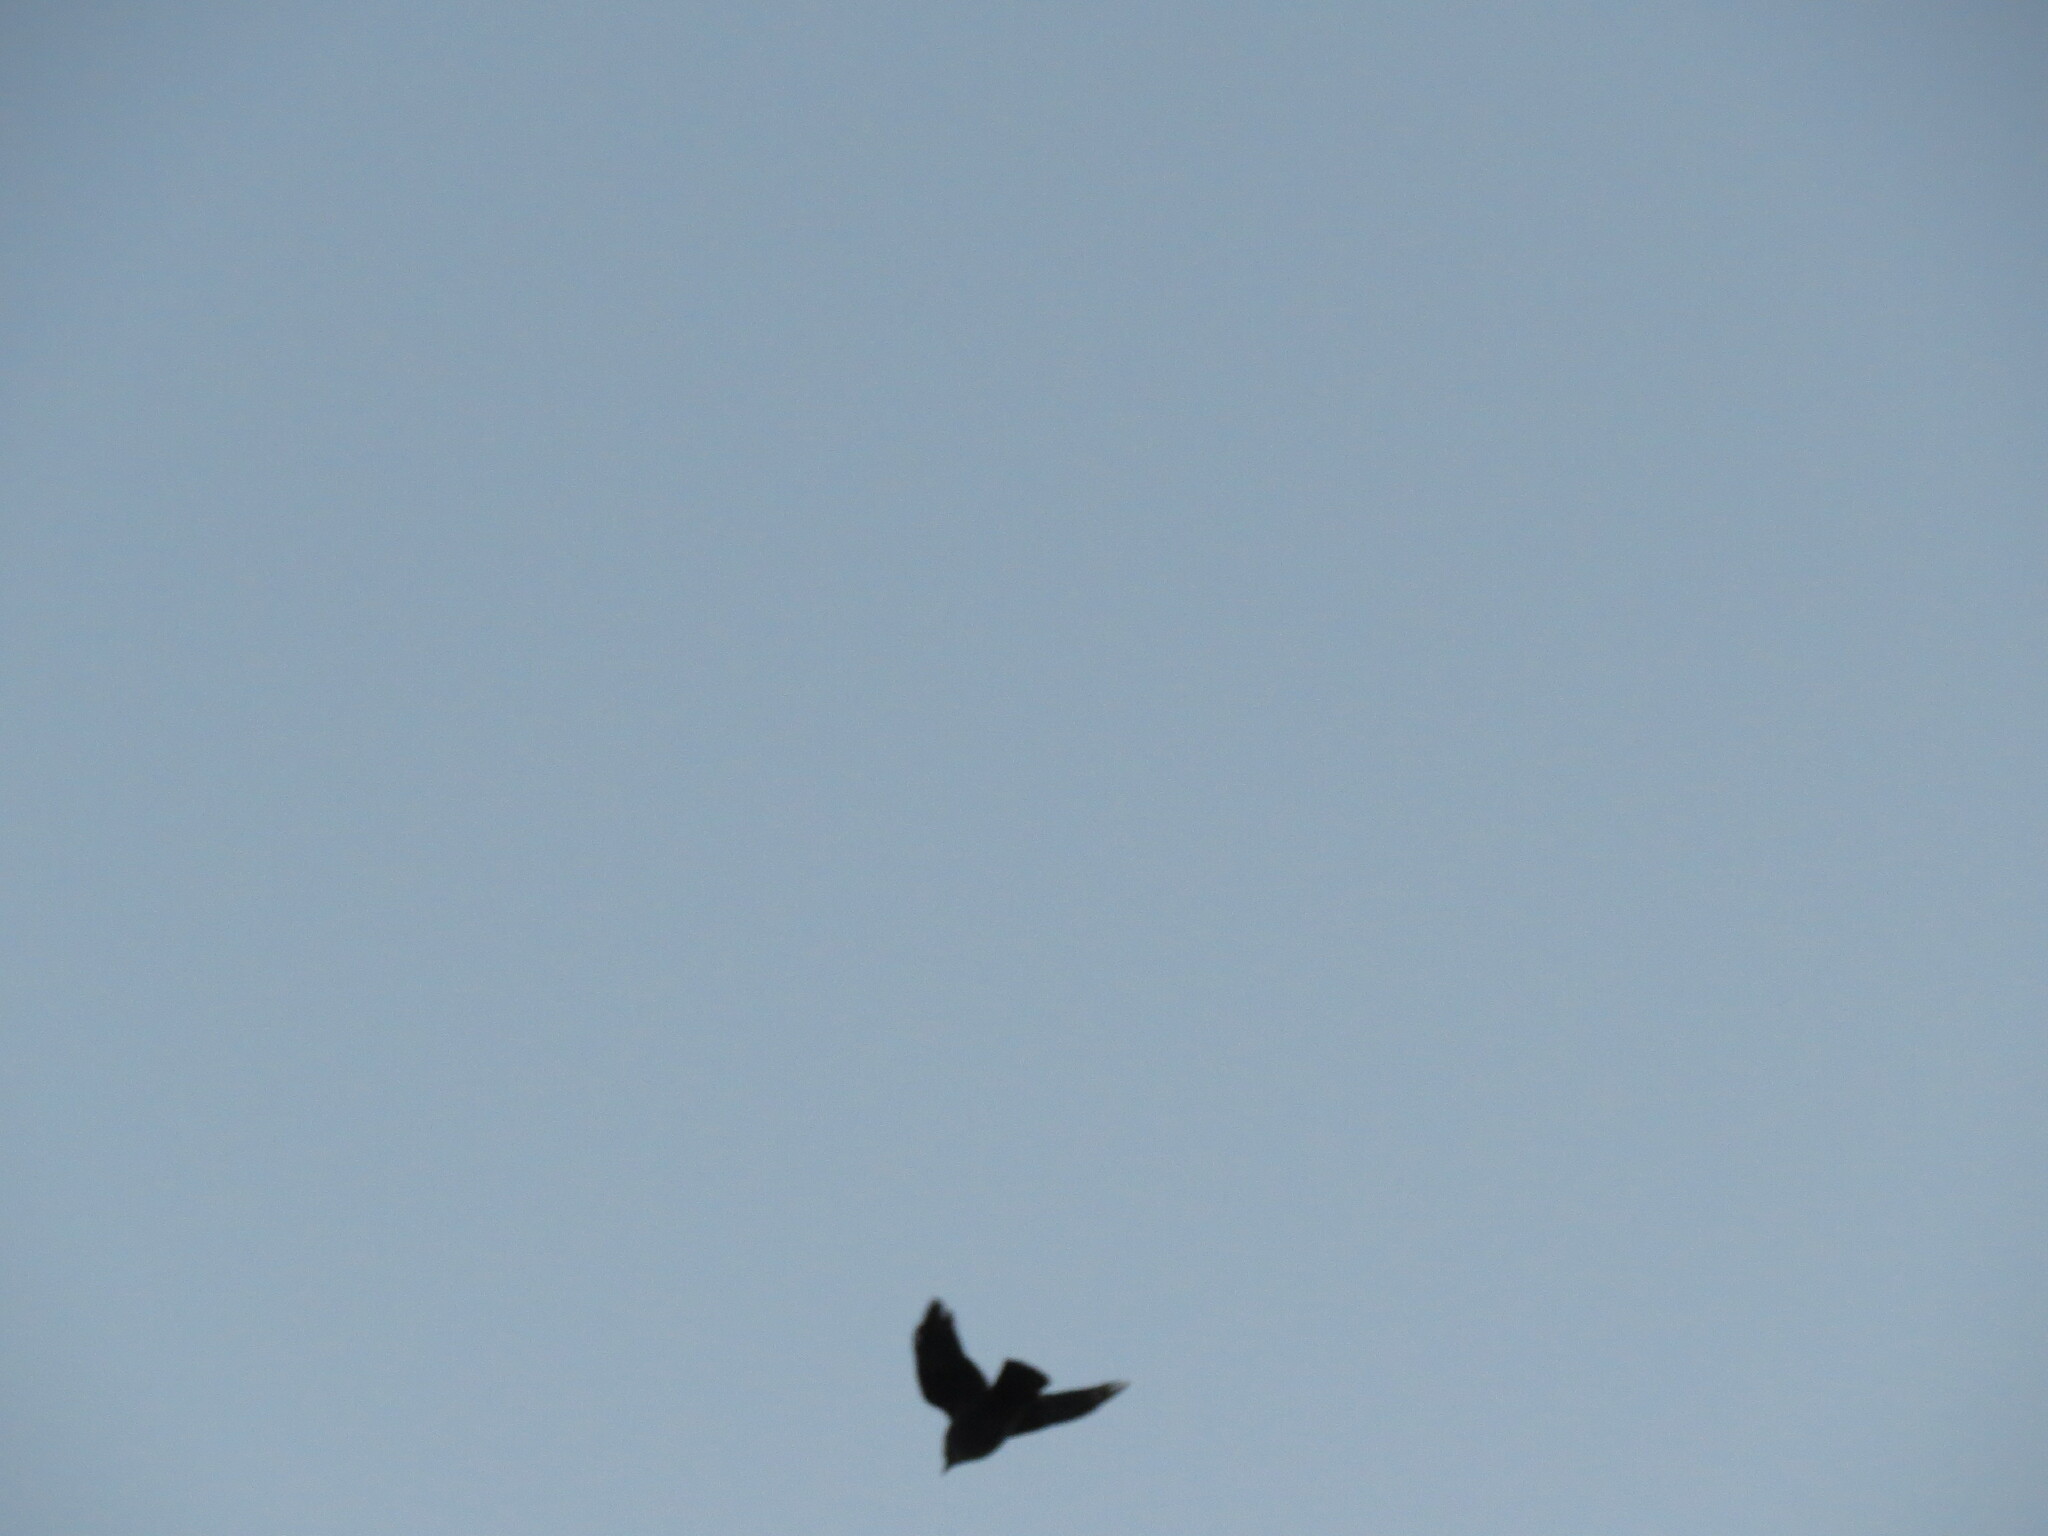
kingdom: Animalia
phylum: Chordata
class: Aves
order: Passeriformes
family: Corvidae
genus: Coloeus
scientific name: Coloeus monedula
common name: Western jackdaw
